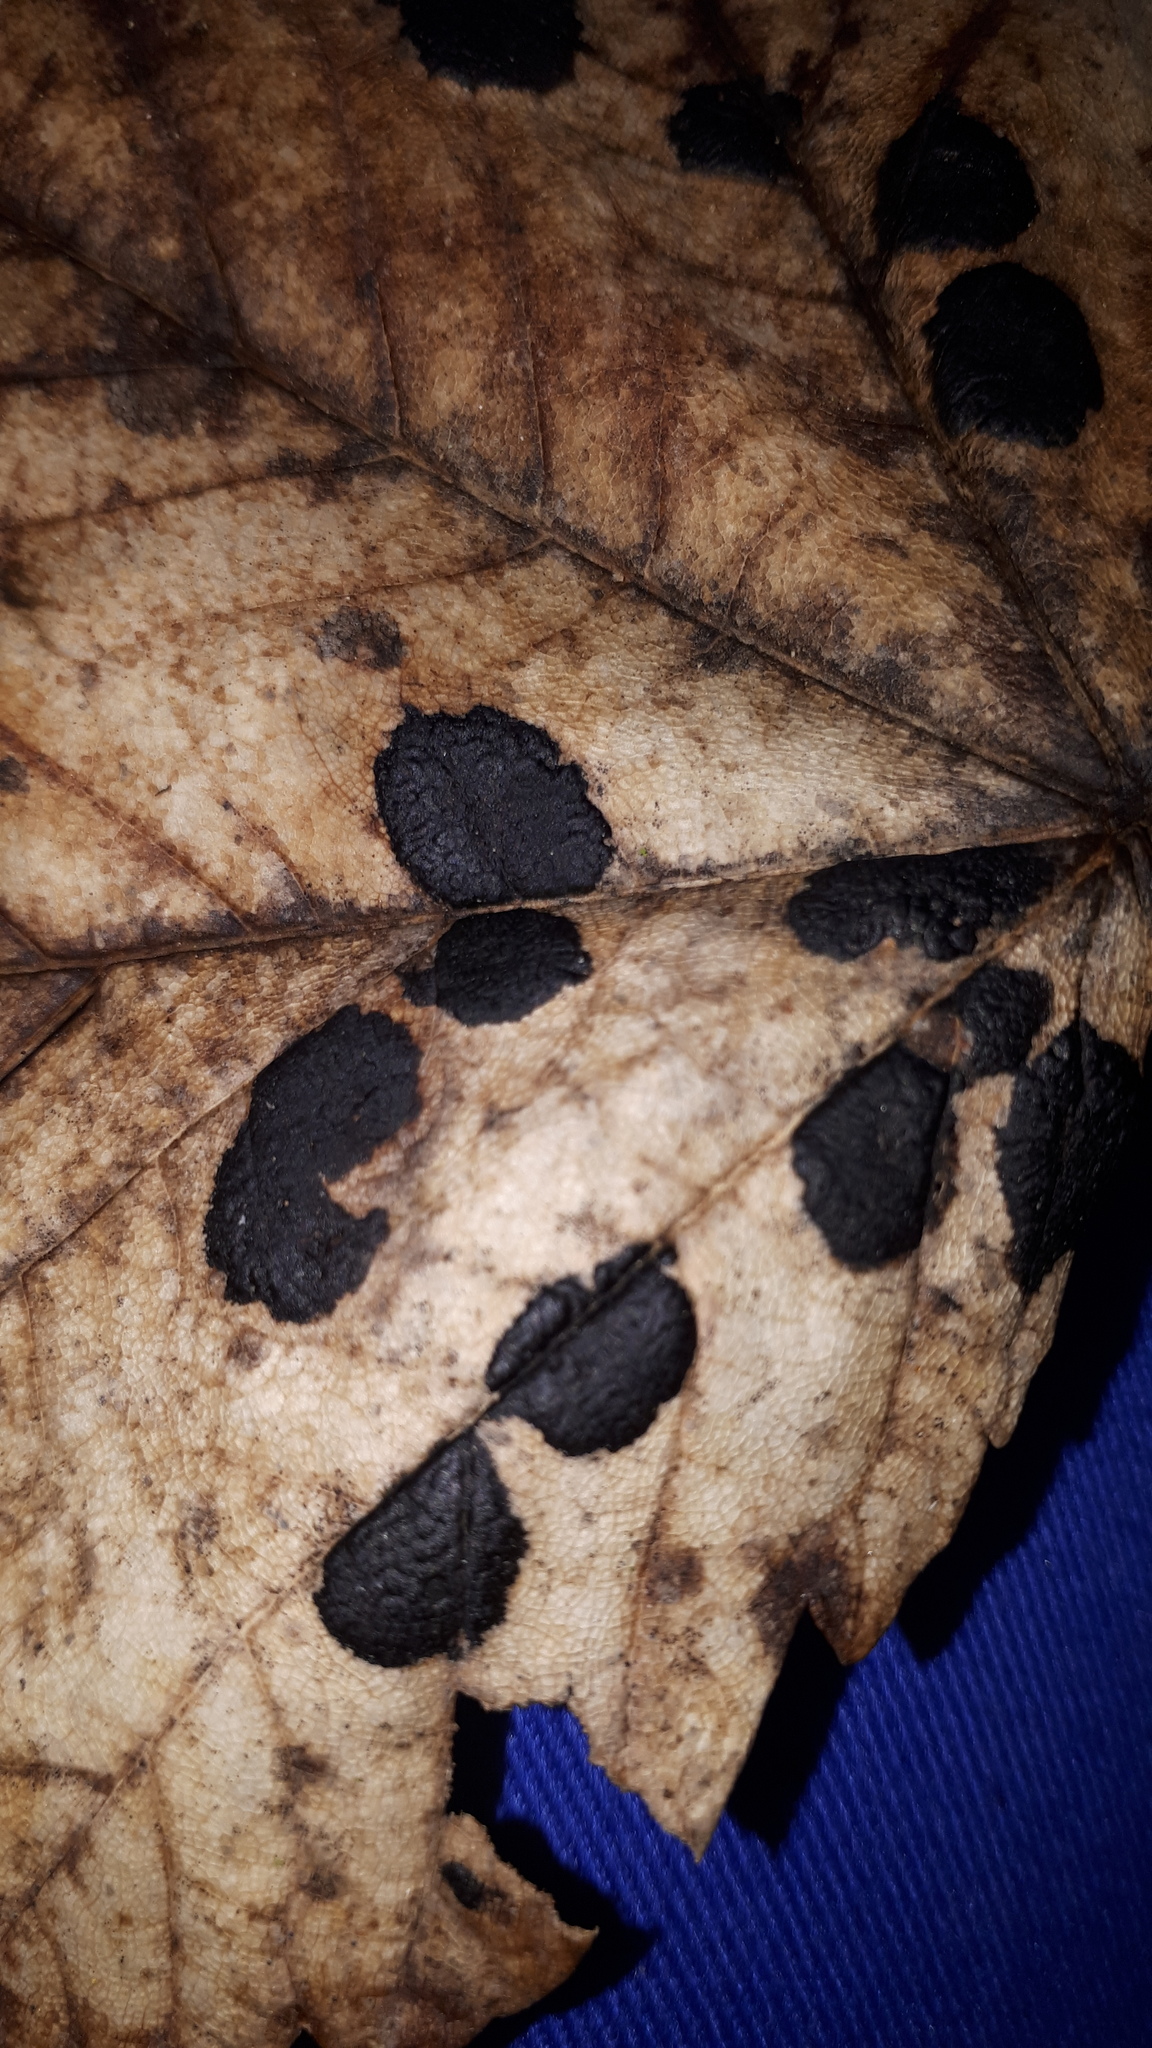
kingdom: Fungi
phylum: Ascomycota
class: Leotiomycetes
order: Rhytismatales
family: Rhytismataceae
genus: Rhytisma
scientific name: Rhytisma acerinum
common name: European tar spot
